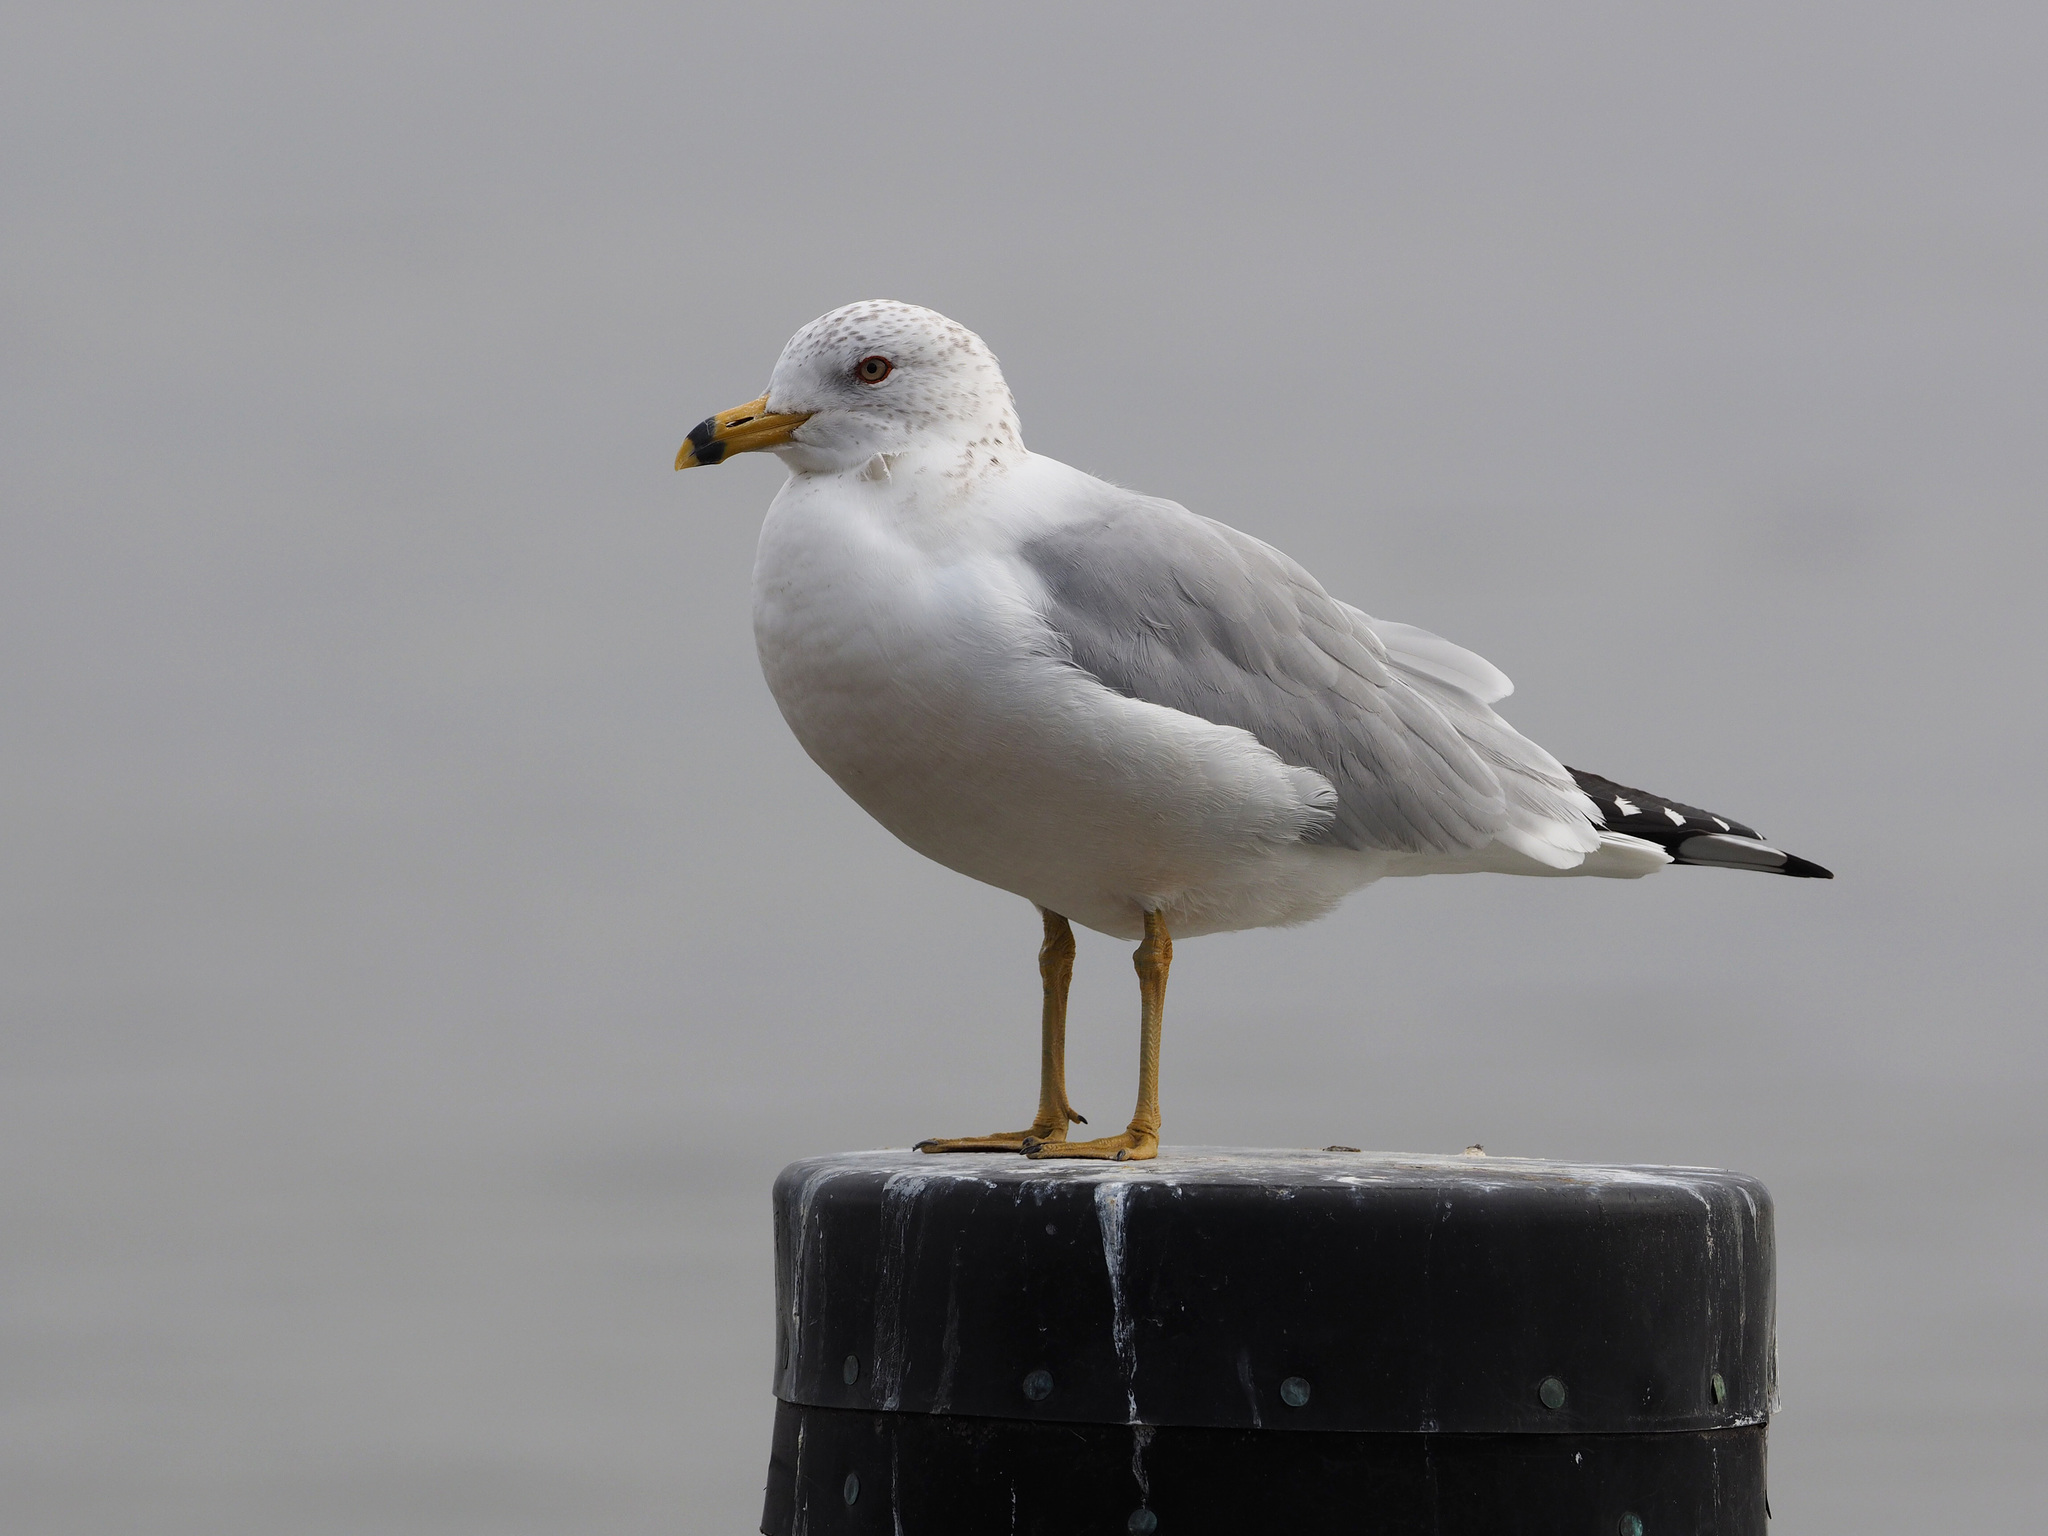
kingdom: Animalia
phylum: Chordata
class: Aves
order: Charadriiformes
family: Laridae
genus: Larus
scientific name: Larus delawarensis
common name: Ring-billed gull
